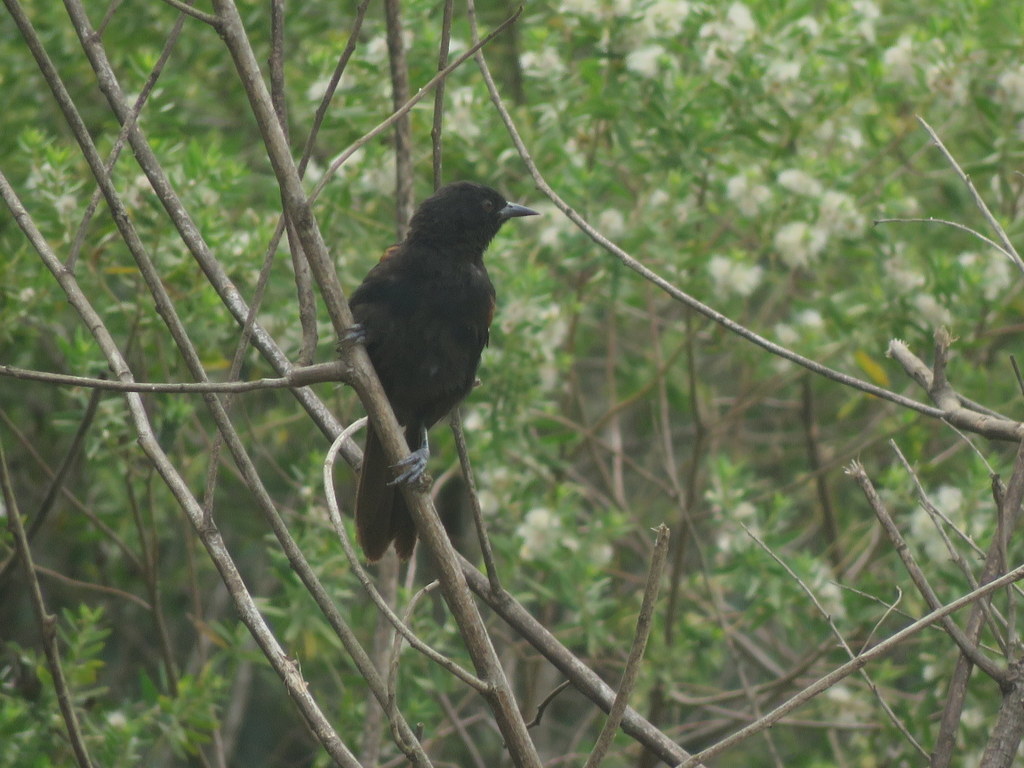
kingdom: Animalia
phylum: Chordata
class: Aves
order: Passeriformes
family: Icteridae
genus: Icterus
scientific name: Icterus cayanensis
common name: Epaulet oriole
